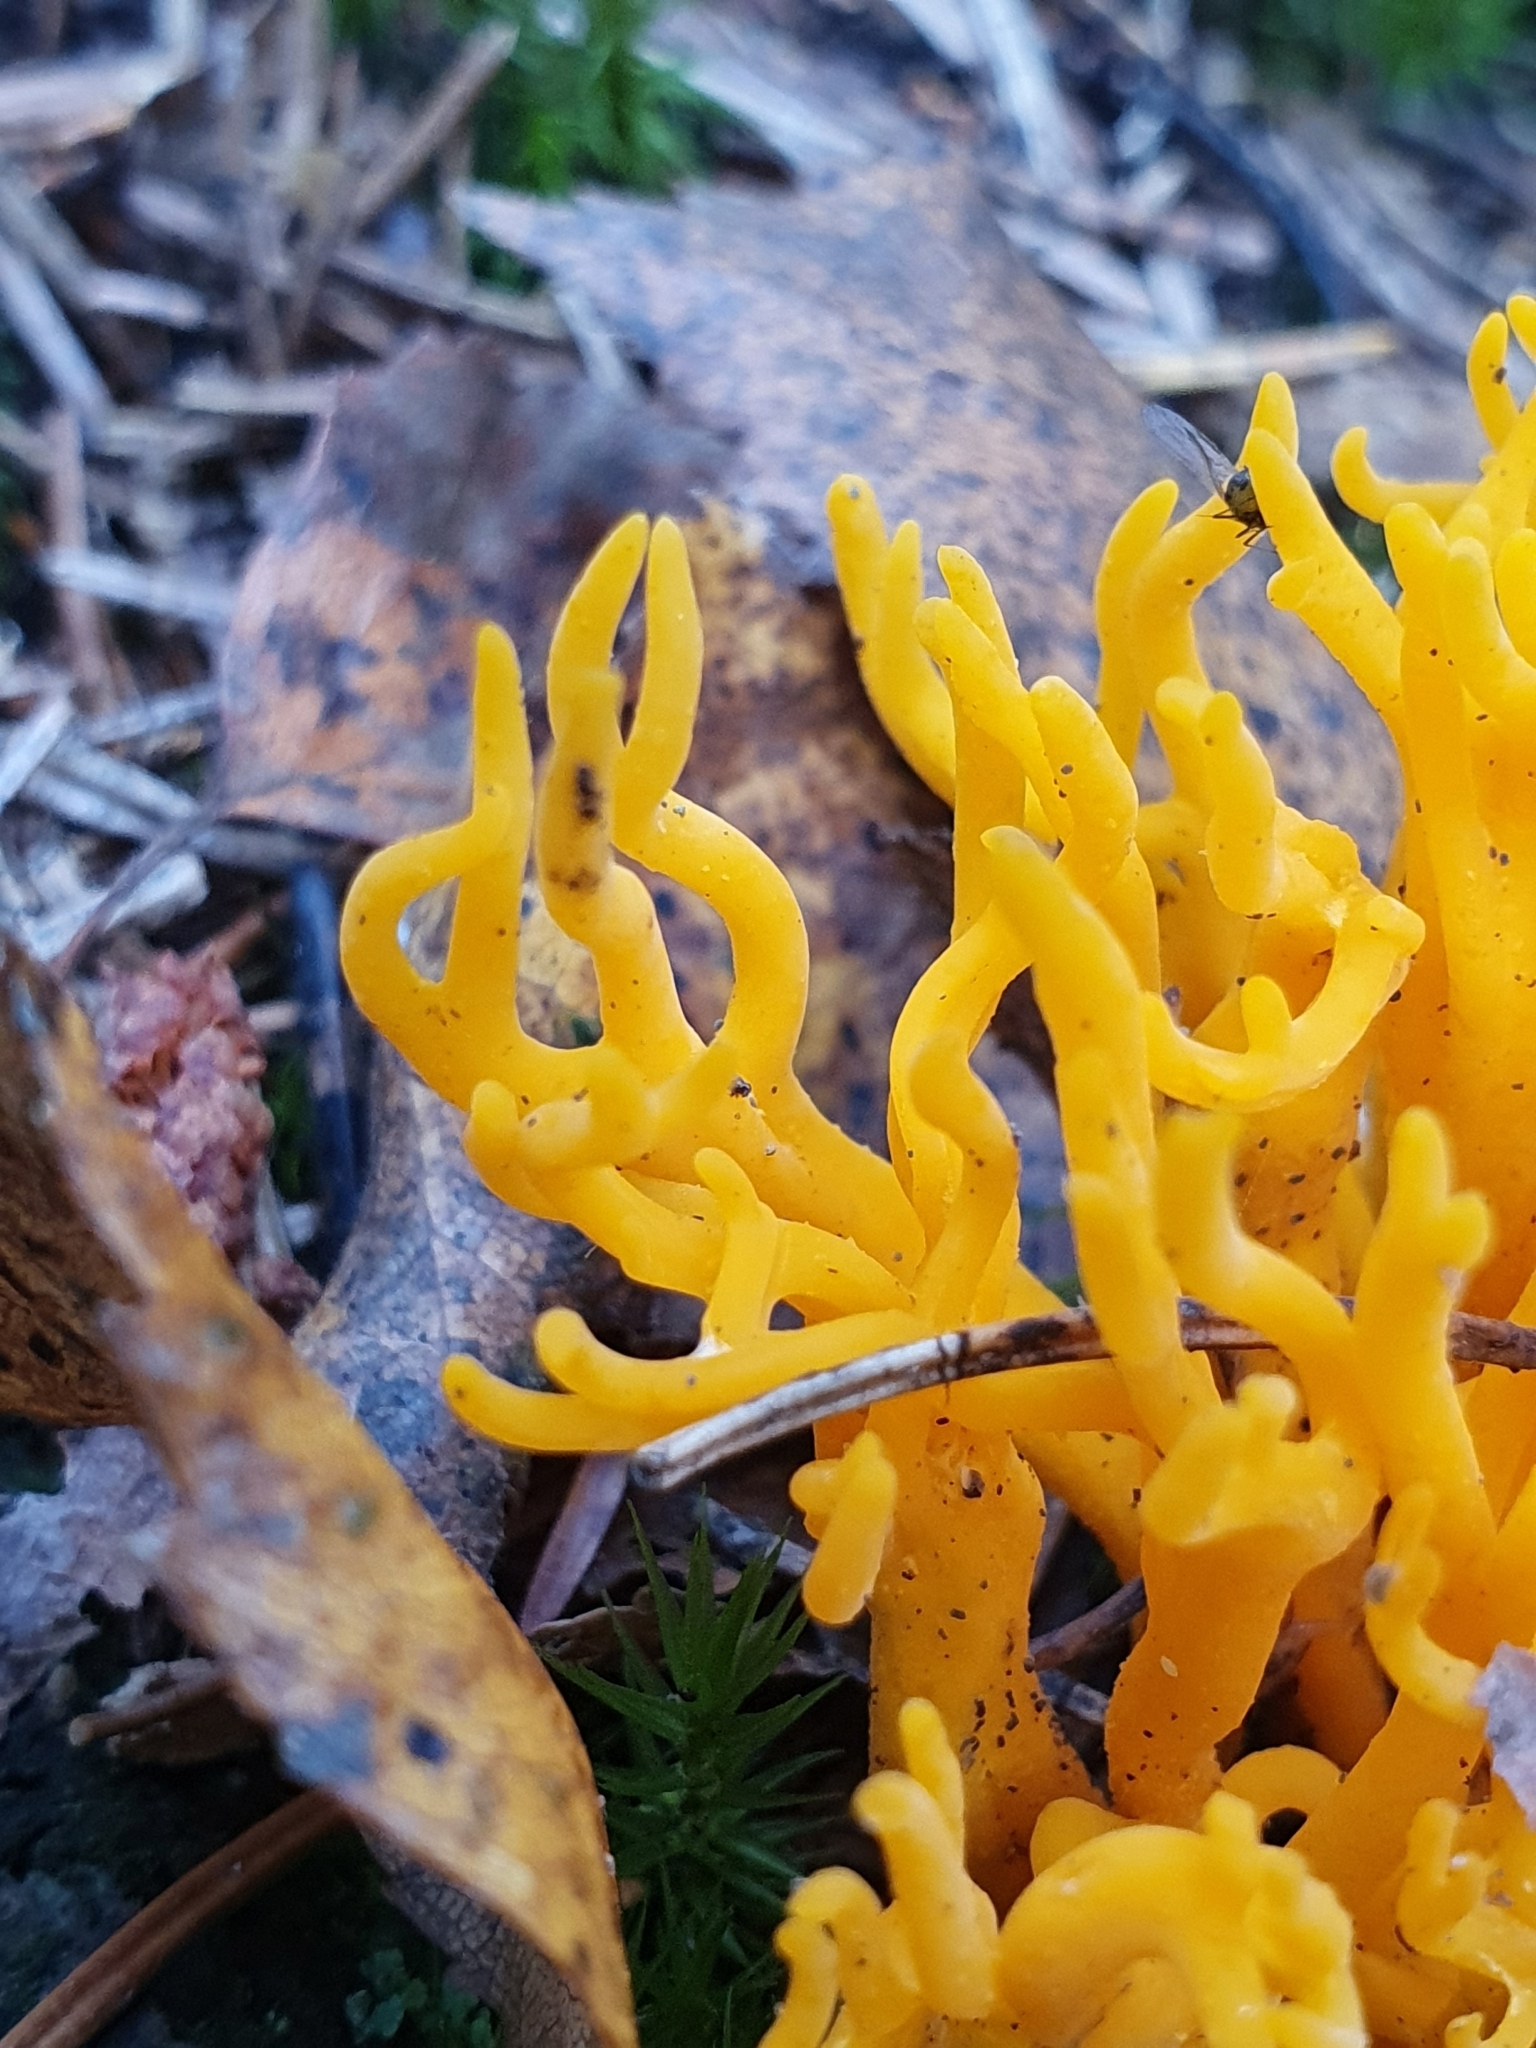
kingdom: Fungi
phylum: Basidiomycota
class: Dacrymycetes
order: Dacrymycetales
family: Dacrymycetaceae
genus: Calocera
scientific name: Calocera viscosa
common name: Yellow stagshorn
